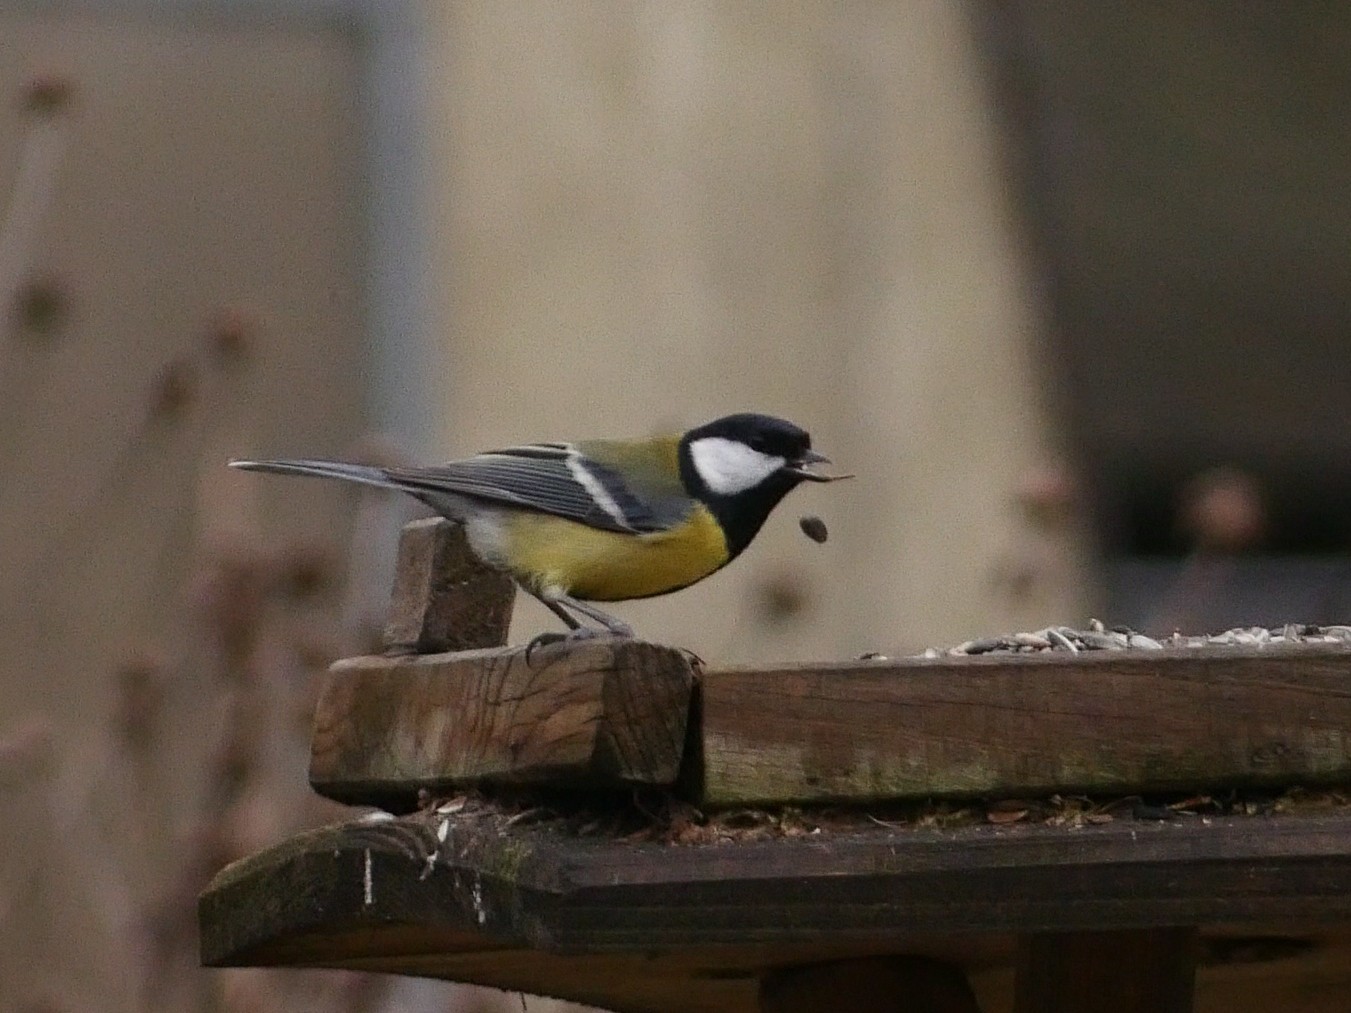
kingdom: Animalia
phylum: Chordata
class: Aves
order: Passeriformes
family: Paridae
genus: Parus
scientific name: Parus major
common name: Great tit
